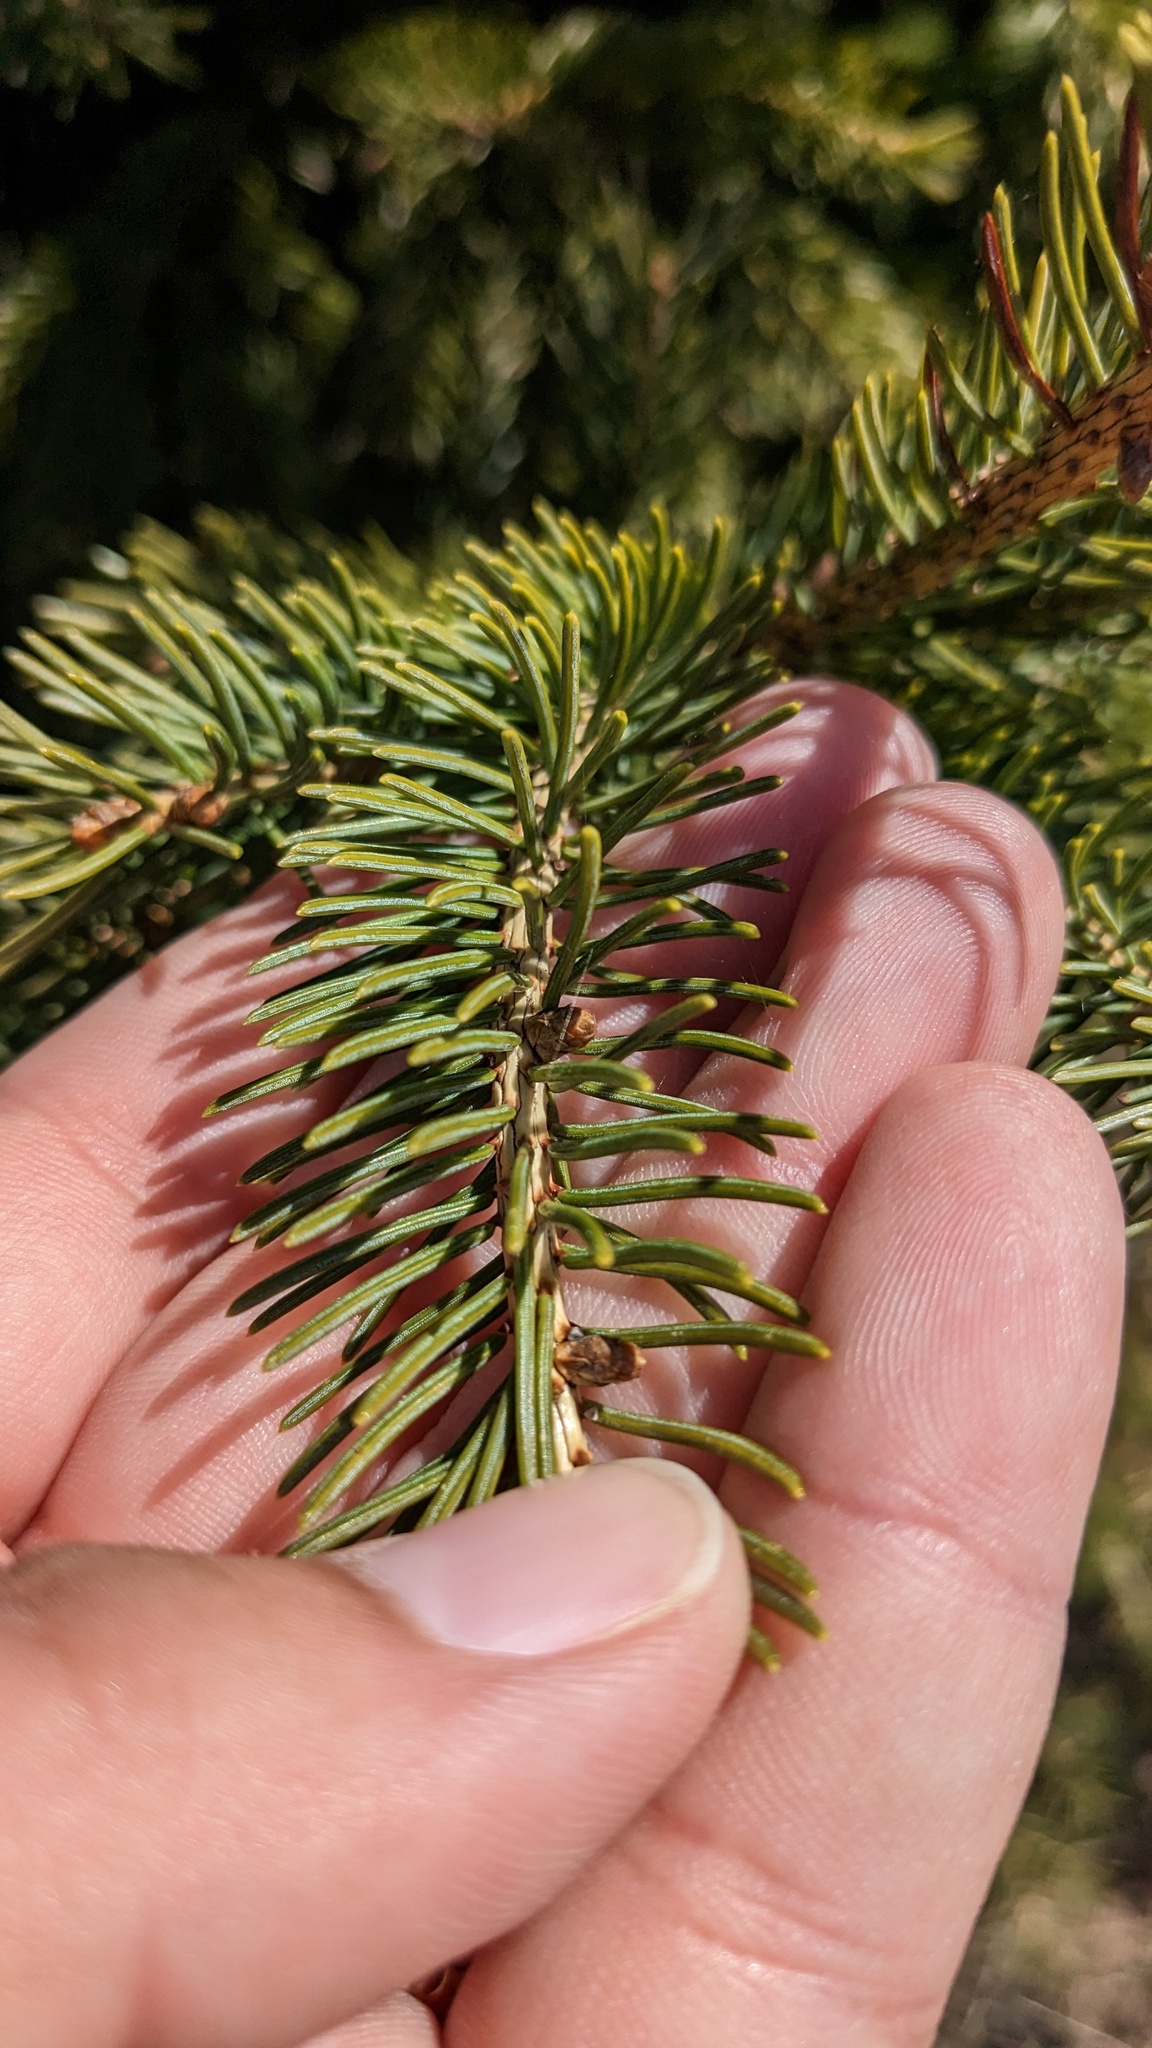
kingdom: Plantae
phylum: Tracheophyta
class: Pinopsida
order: Pinales
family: Pinaceae
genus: Picea
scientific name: Picea glauca
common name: White spruce
